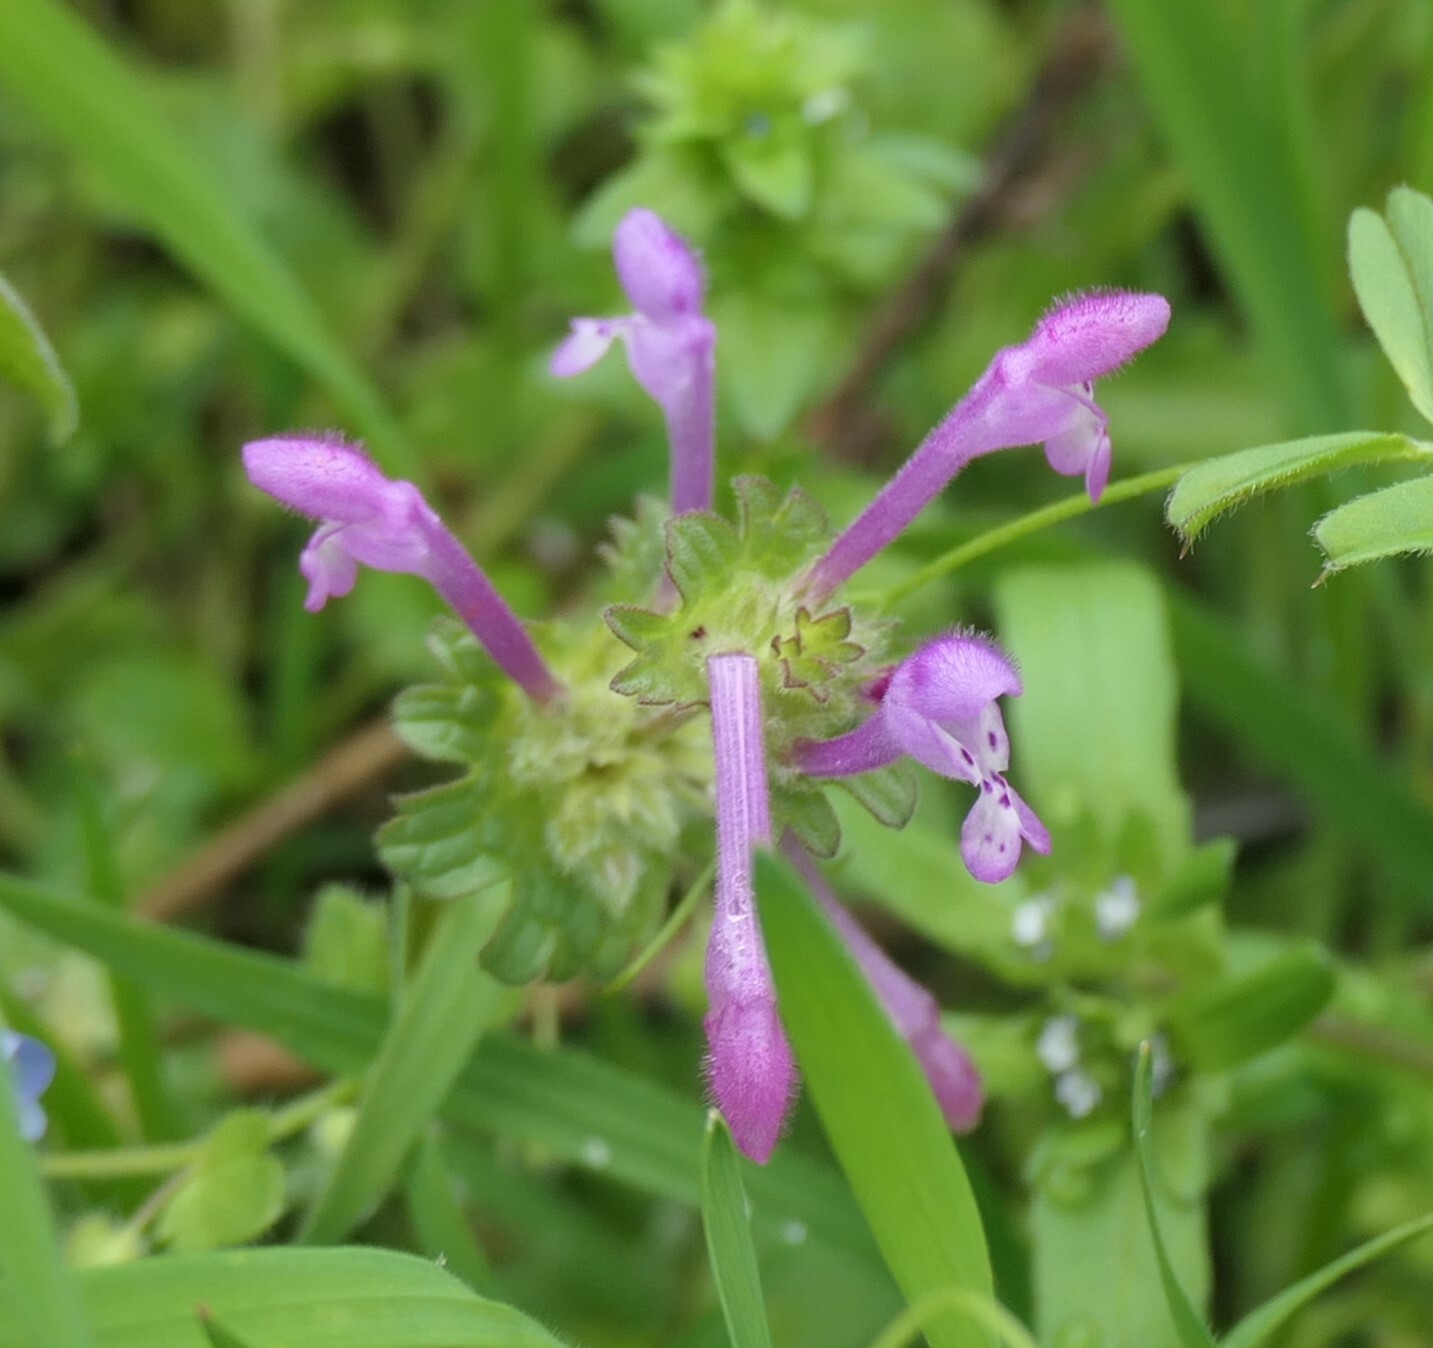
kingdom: Plantae
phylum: Tracheophyta
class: Magnoliopsida
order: Lamiales
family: Lamiaceae
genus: Lamium
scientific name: Lamium amplexicaule
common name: Henbit dead-nettle
